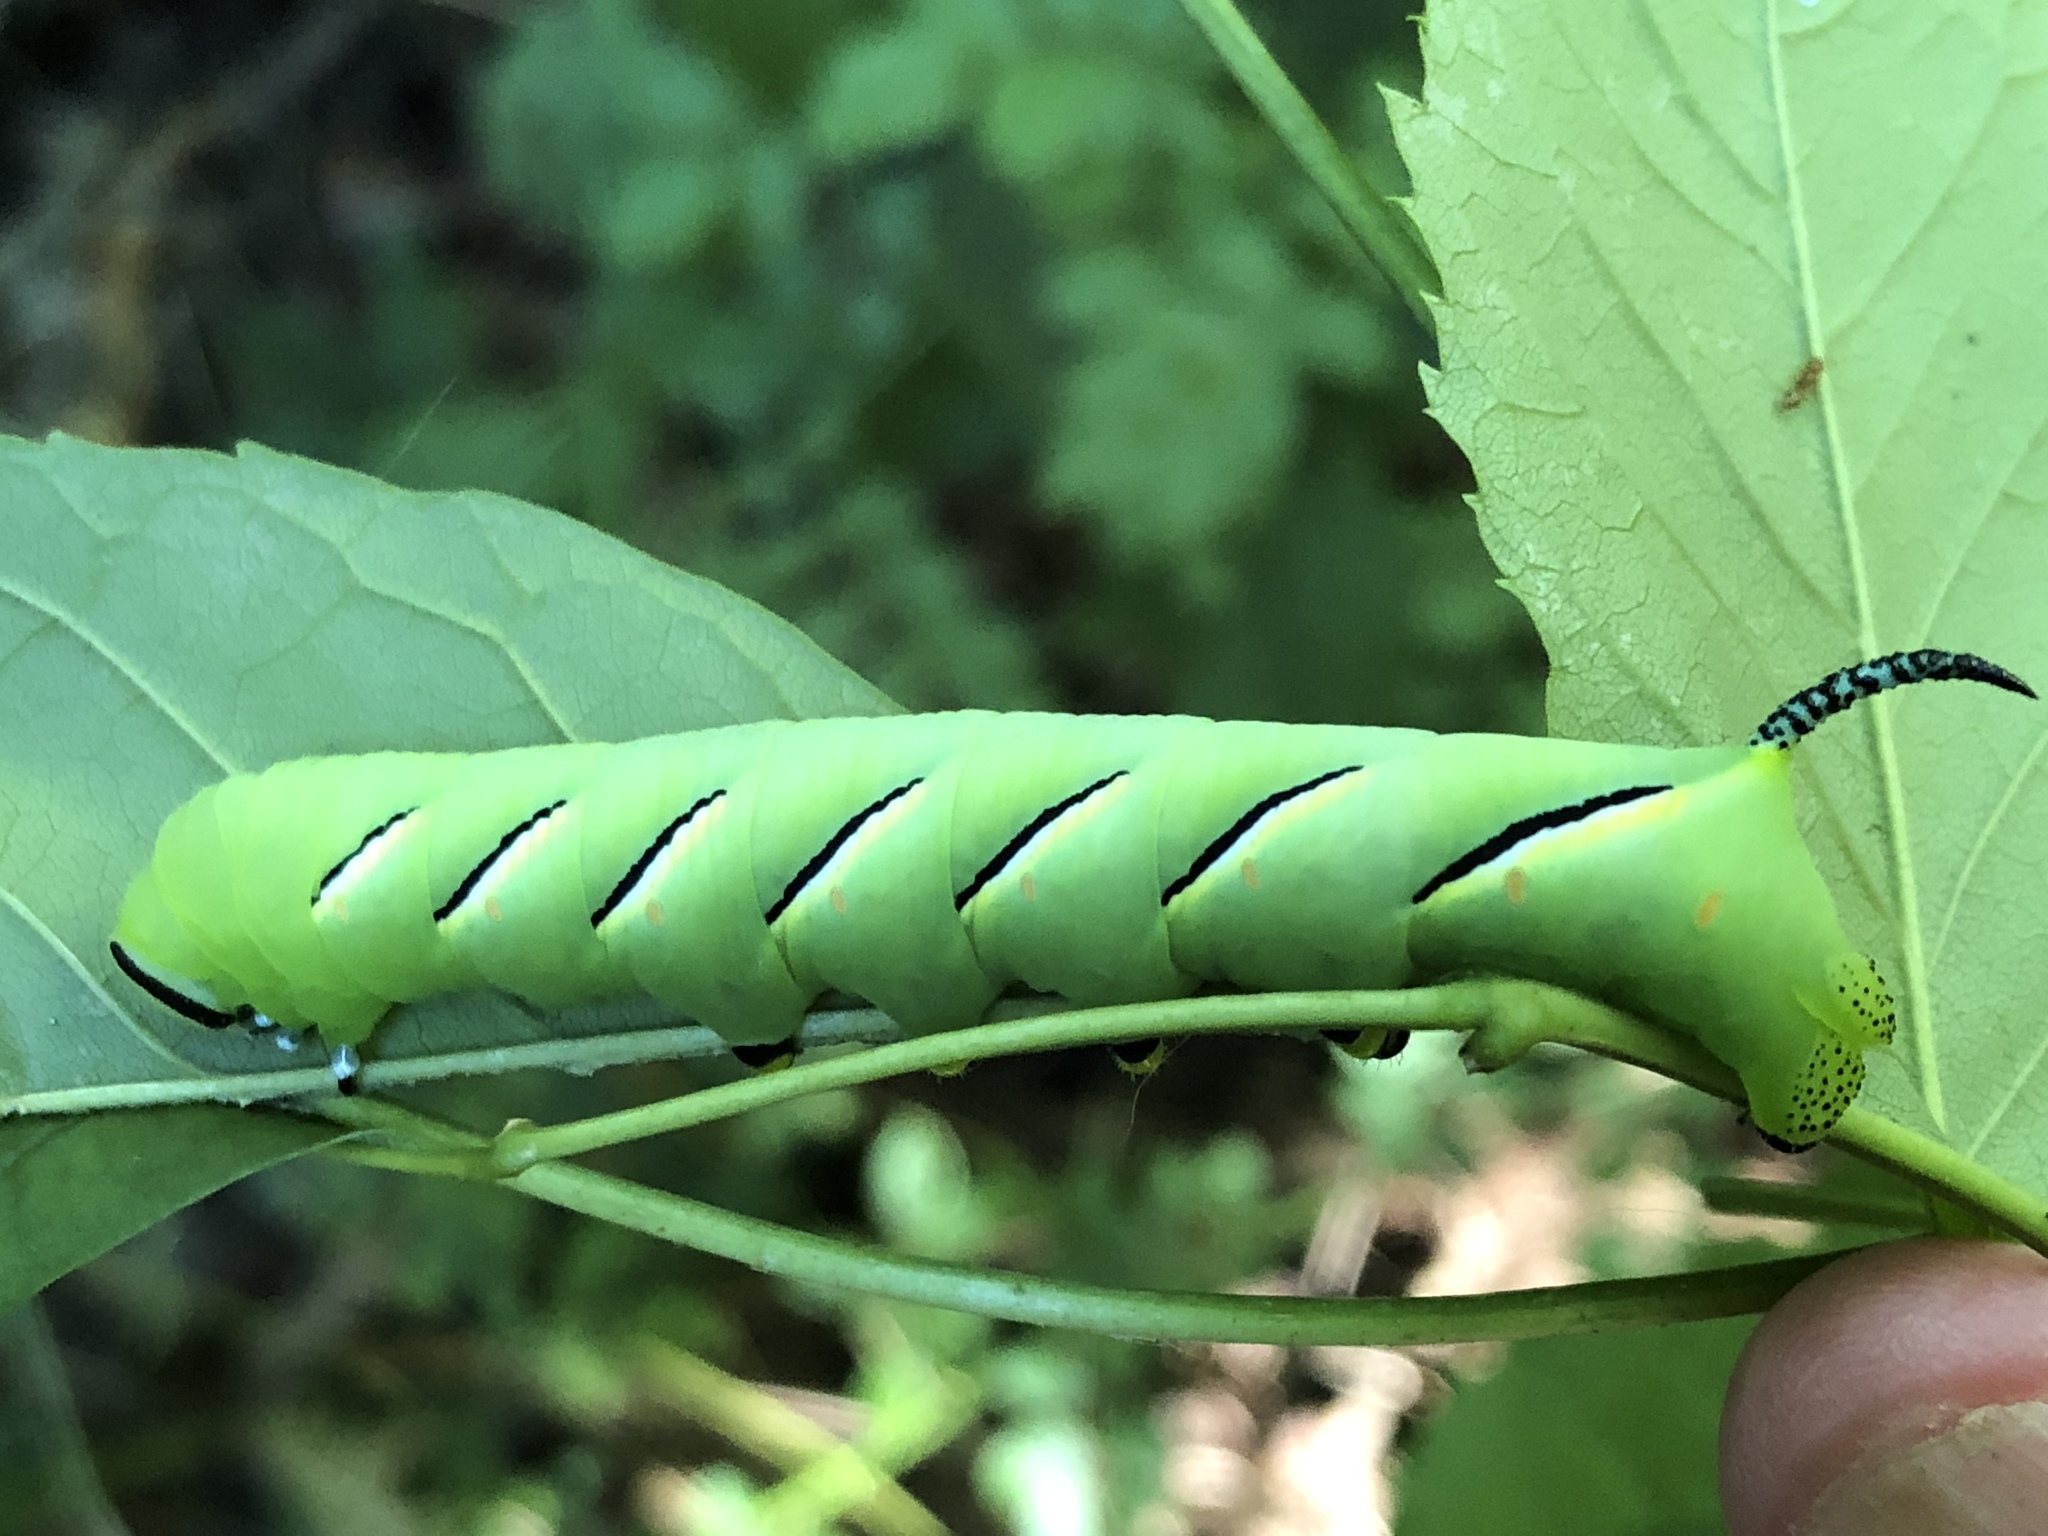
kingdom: Animalia
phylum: Arthropoda
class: Insecta
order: Lepidoptera
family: Sphingidae
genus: Sphinx
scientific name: Sphinx kalmiae
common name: Laurel sphinx
